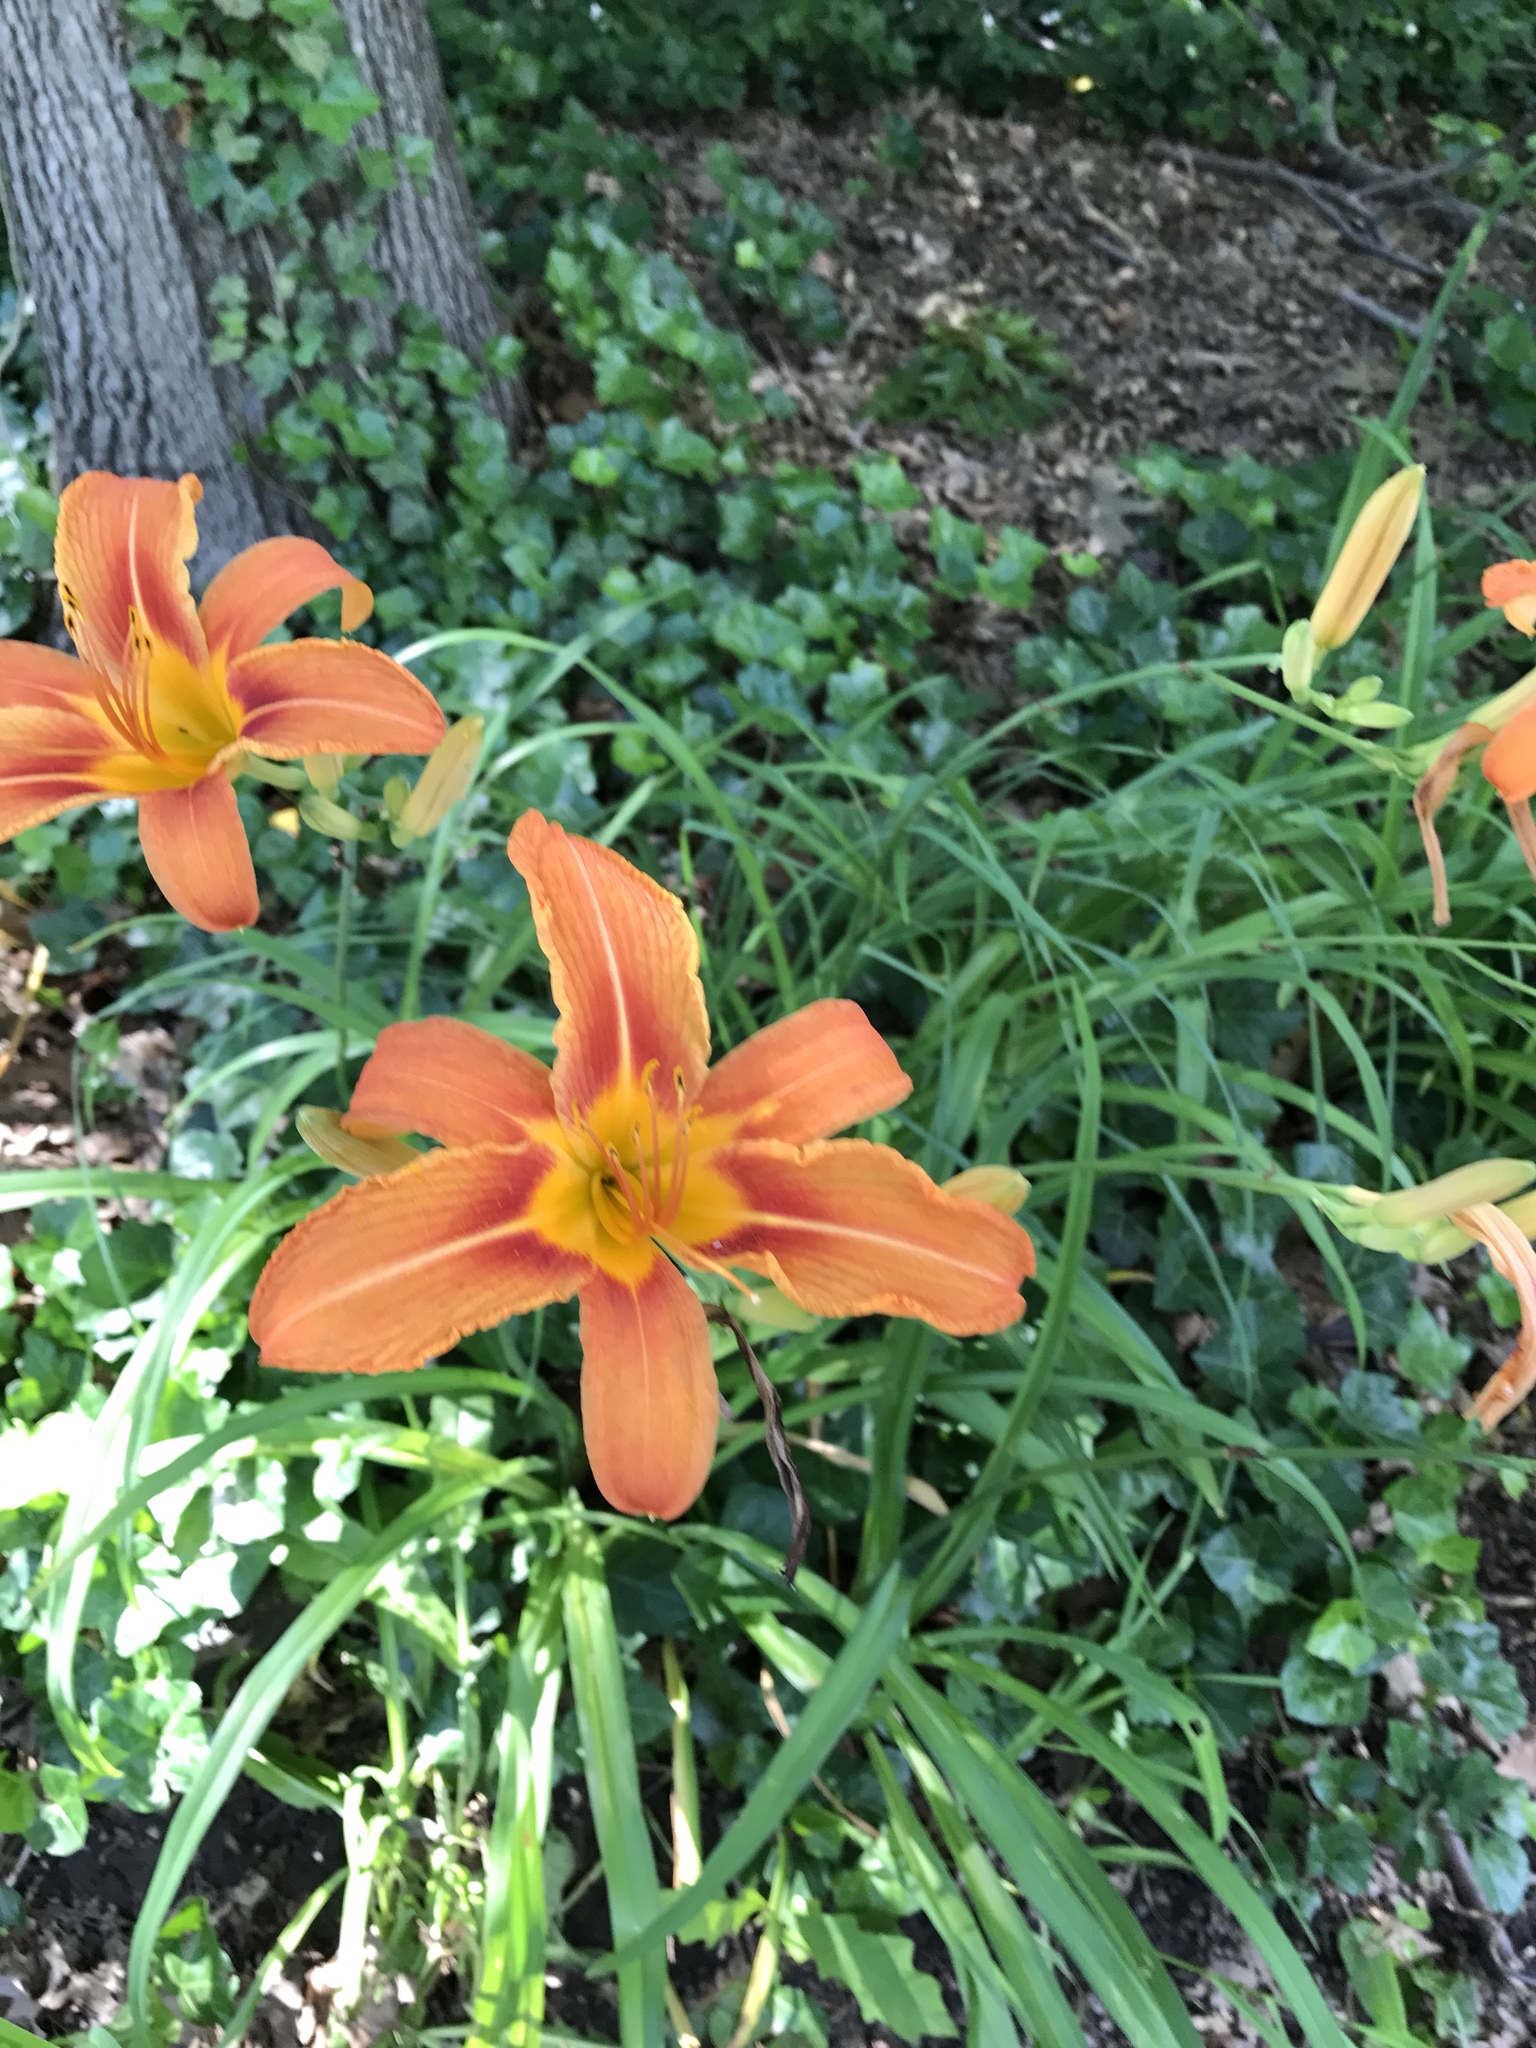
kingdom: Plantae
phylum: Tracheophyta
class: Liliopsida
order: Asparagales
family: Asphodelaceae
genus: Hemerocallis
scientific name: Hemerocallis fulva
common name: Orange day-lily
